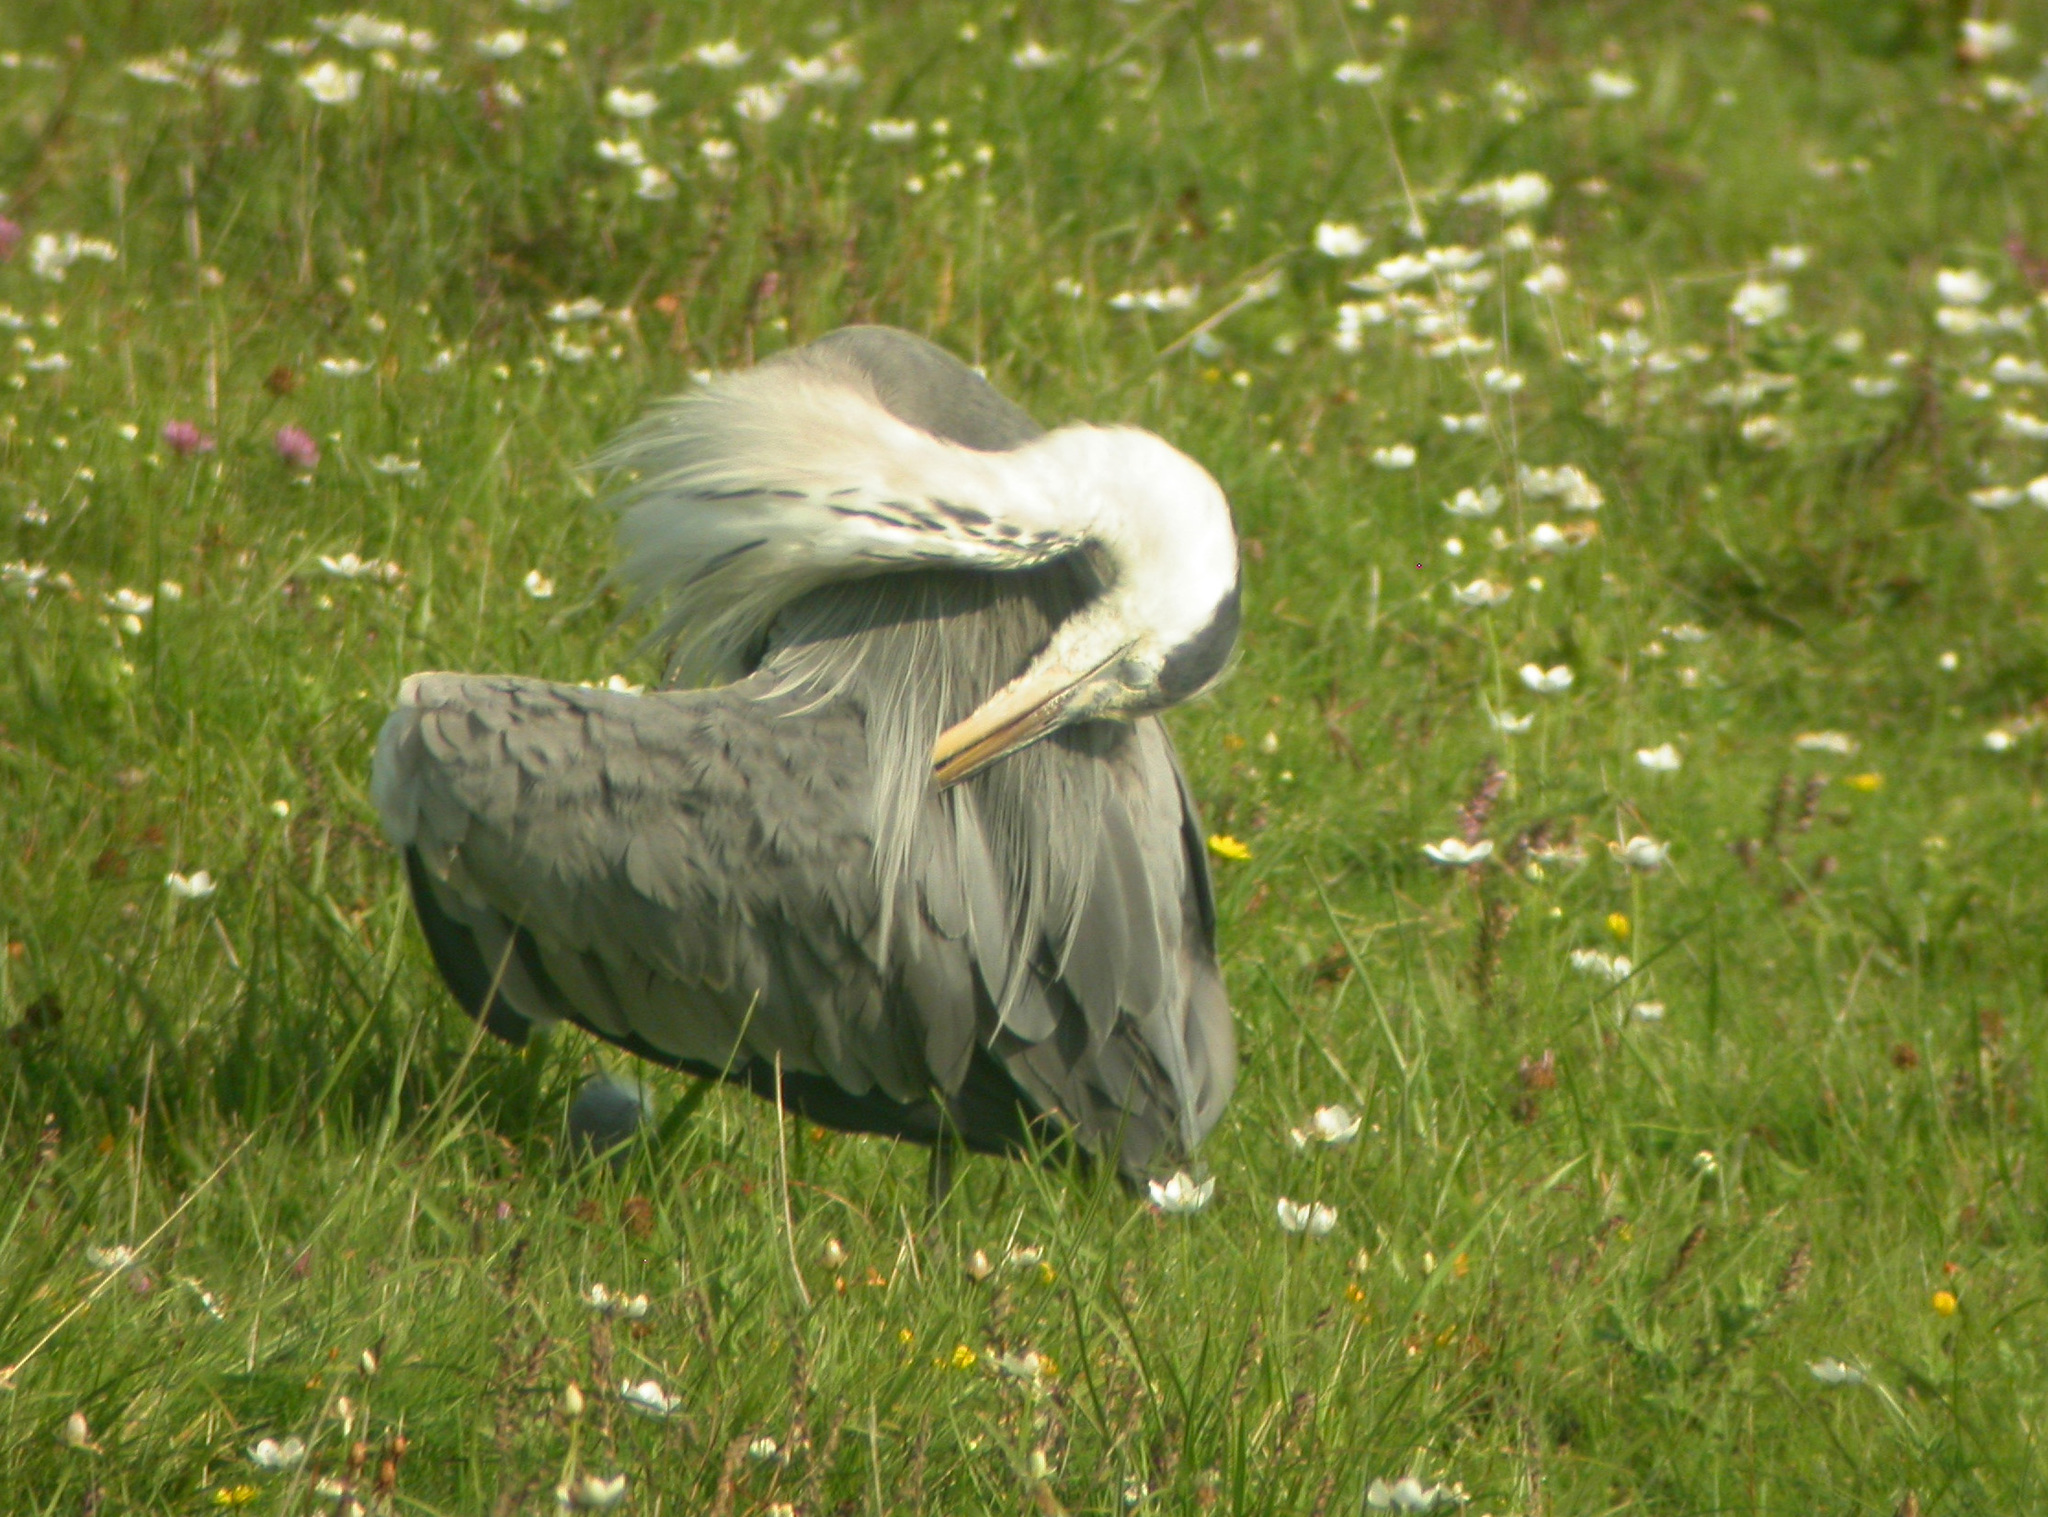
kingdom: Animalia
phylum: Chordata
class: Aves
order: Pelecaniformes
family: Ardeidae
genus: Ardea
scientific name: Ardea cinerea
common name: Grey heron
